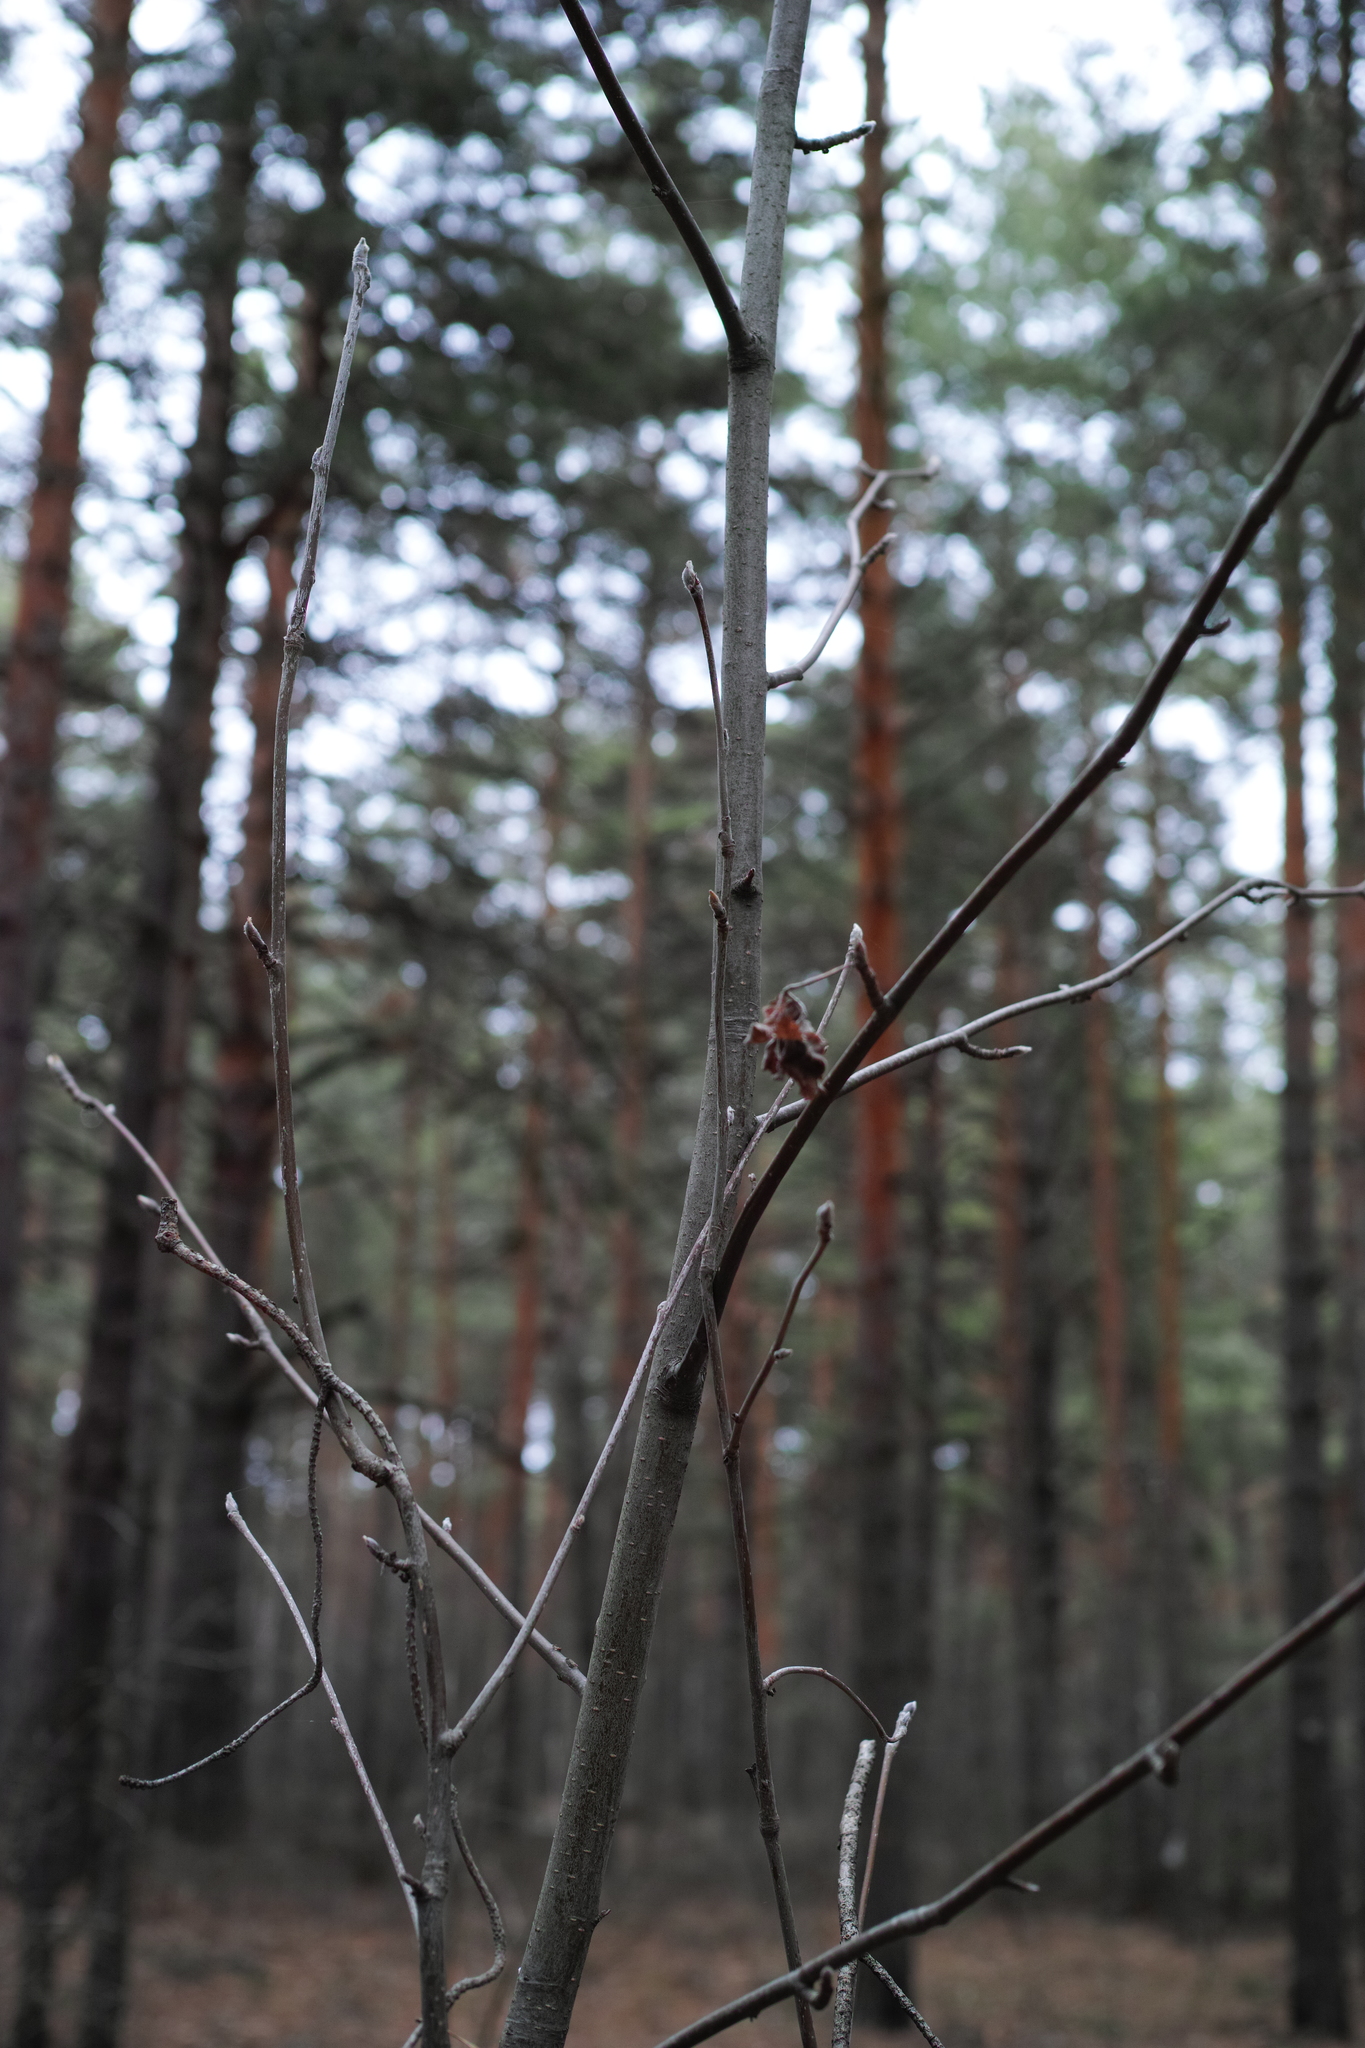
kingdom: Plantae
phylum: Tracheophyta
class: Magnoliopsida
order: Rosales
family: Rosaceae
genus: Sorbus
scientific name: Sorbus aucuparia
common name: Rowan
